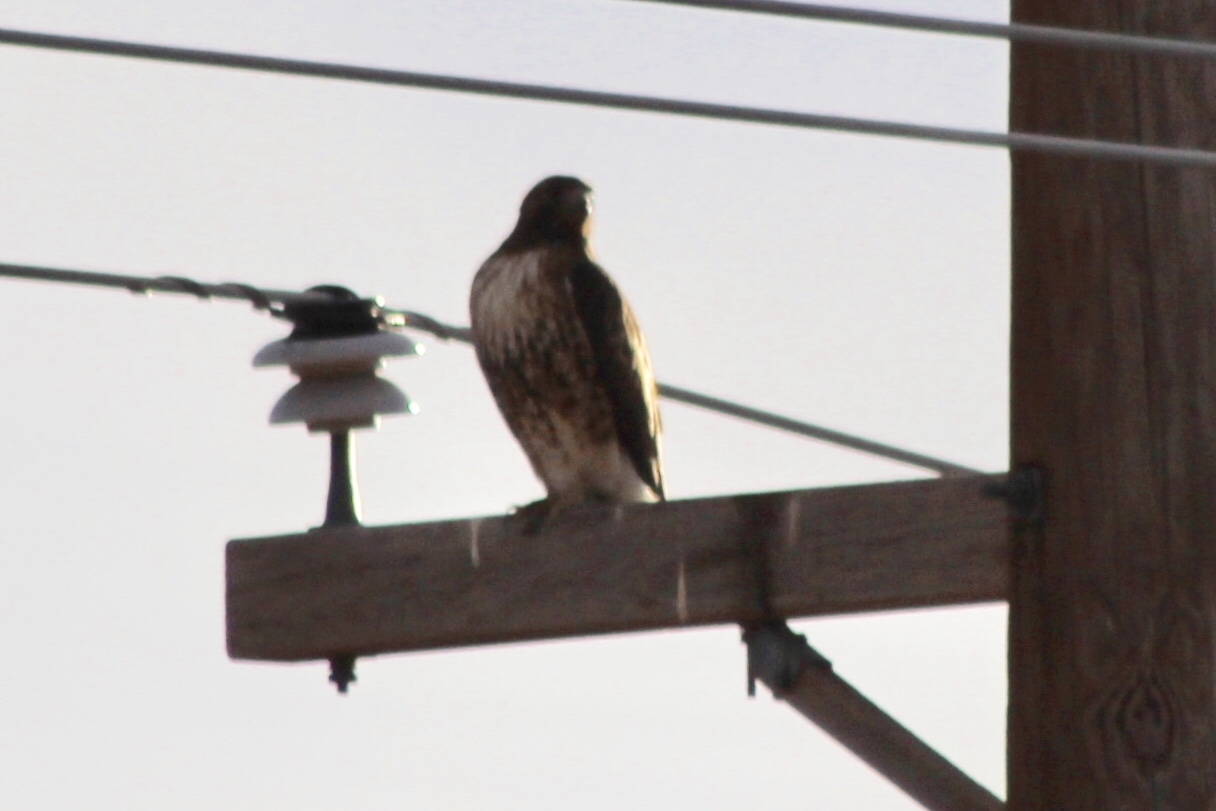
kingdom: Animalia
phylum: Chordata
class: Aves
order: Accipitriformes
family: Accipitridae
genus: Buteo
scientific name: Buteo jamaicensis
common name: Red-tailed hawk
